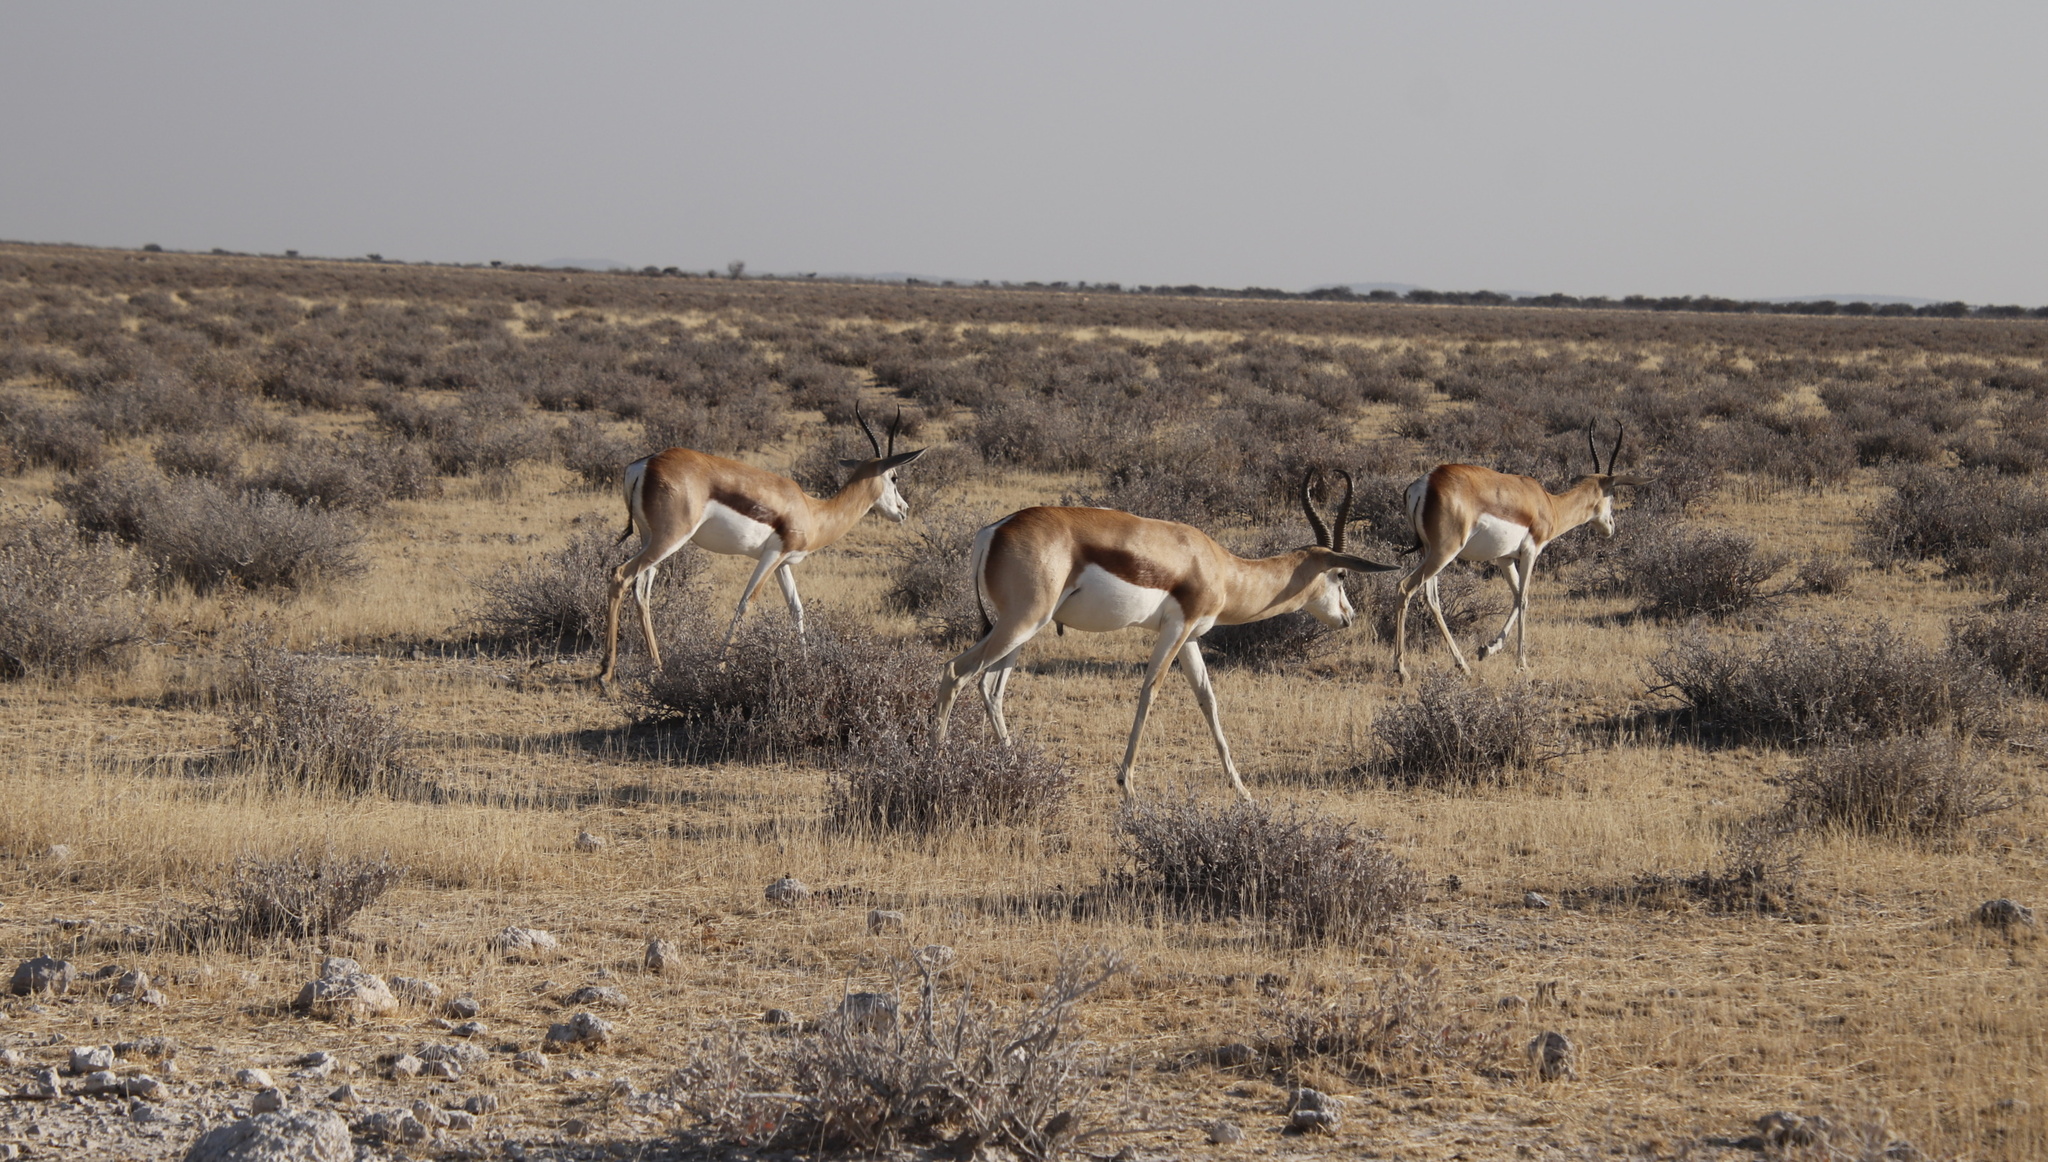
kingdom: Animalia
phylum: Chordata
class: Mammalia
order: Artiodactyla
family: Bovidae
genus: Antidorcas
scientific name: Antidorcas marsupialis
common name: Springbok
